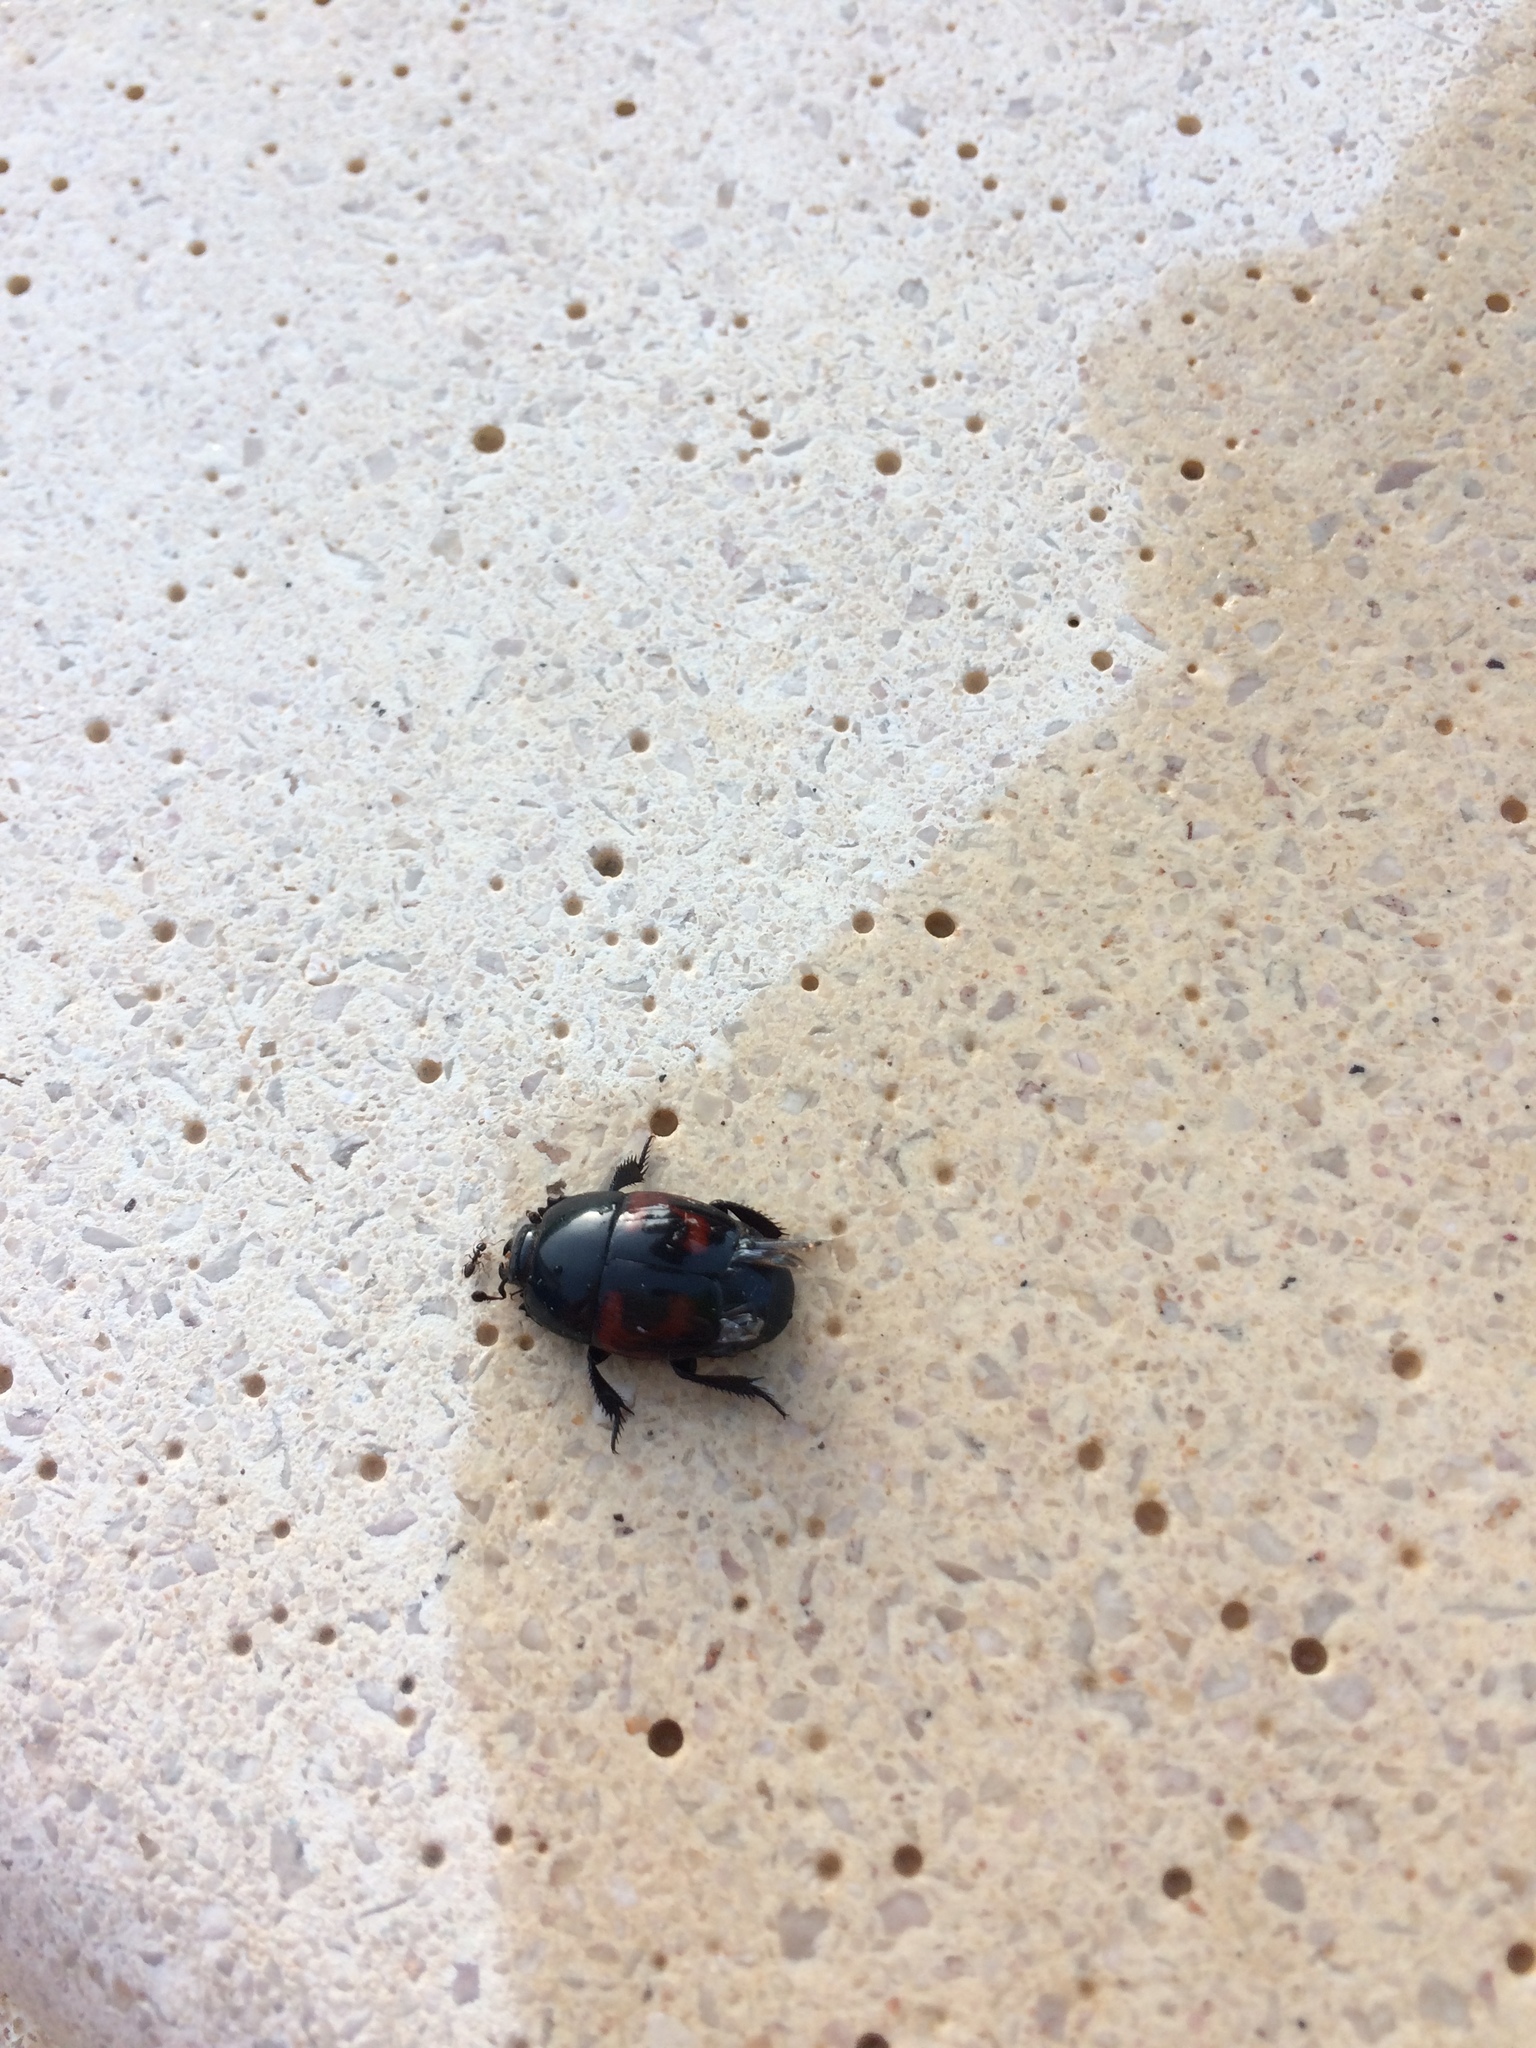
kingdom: Animalia
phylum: Arthropoda
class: Insecta
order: Coleoptera
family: Histeridae
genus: Hister
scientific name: Hister quadrimaculatus
